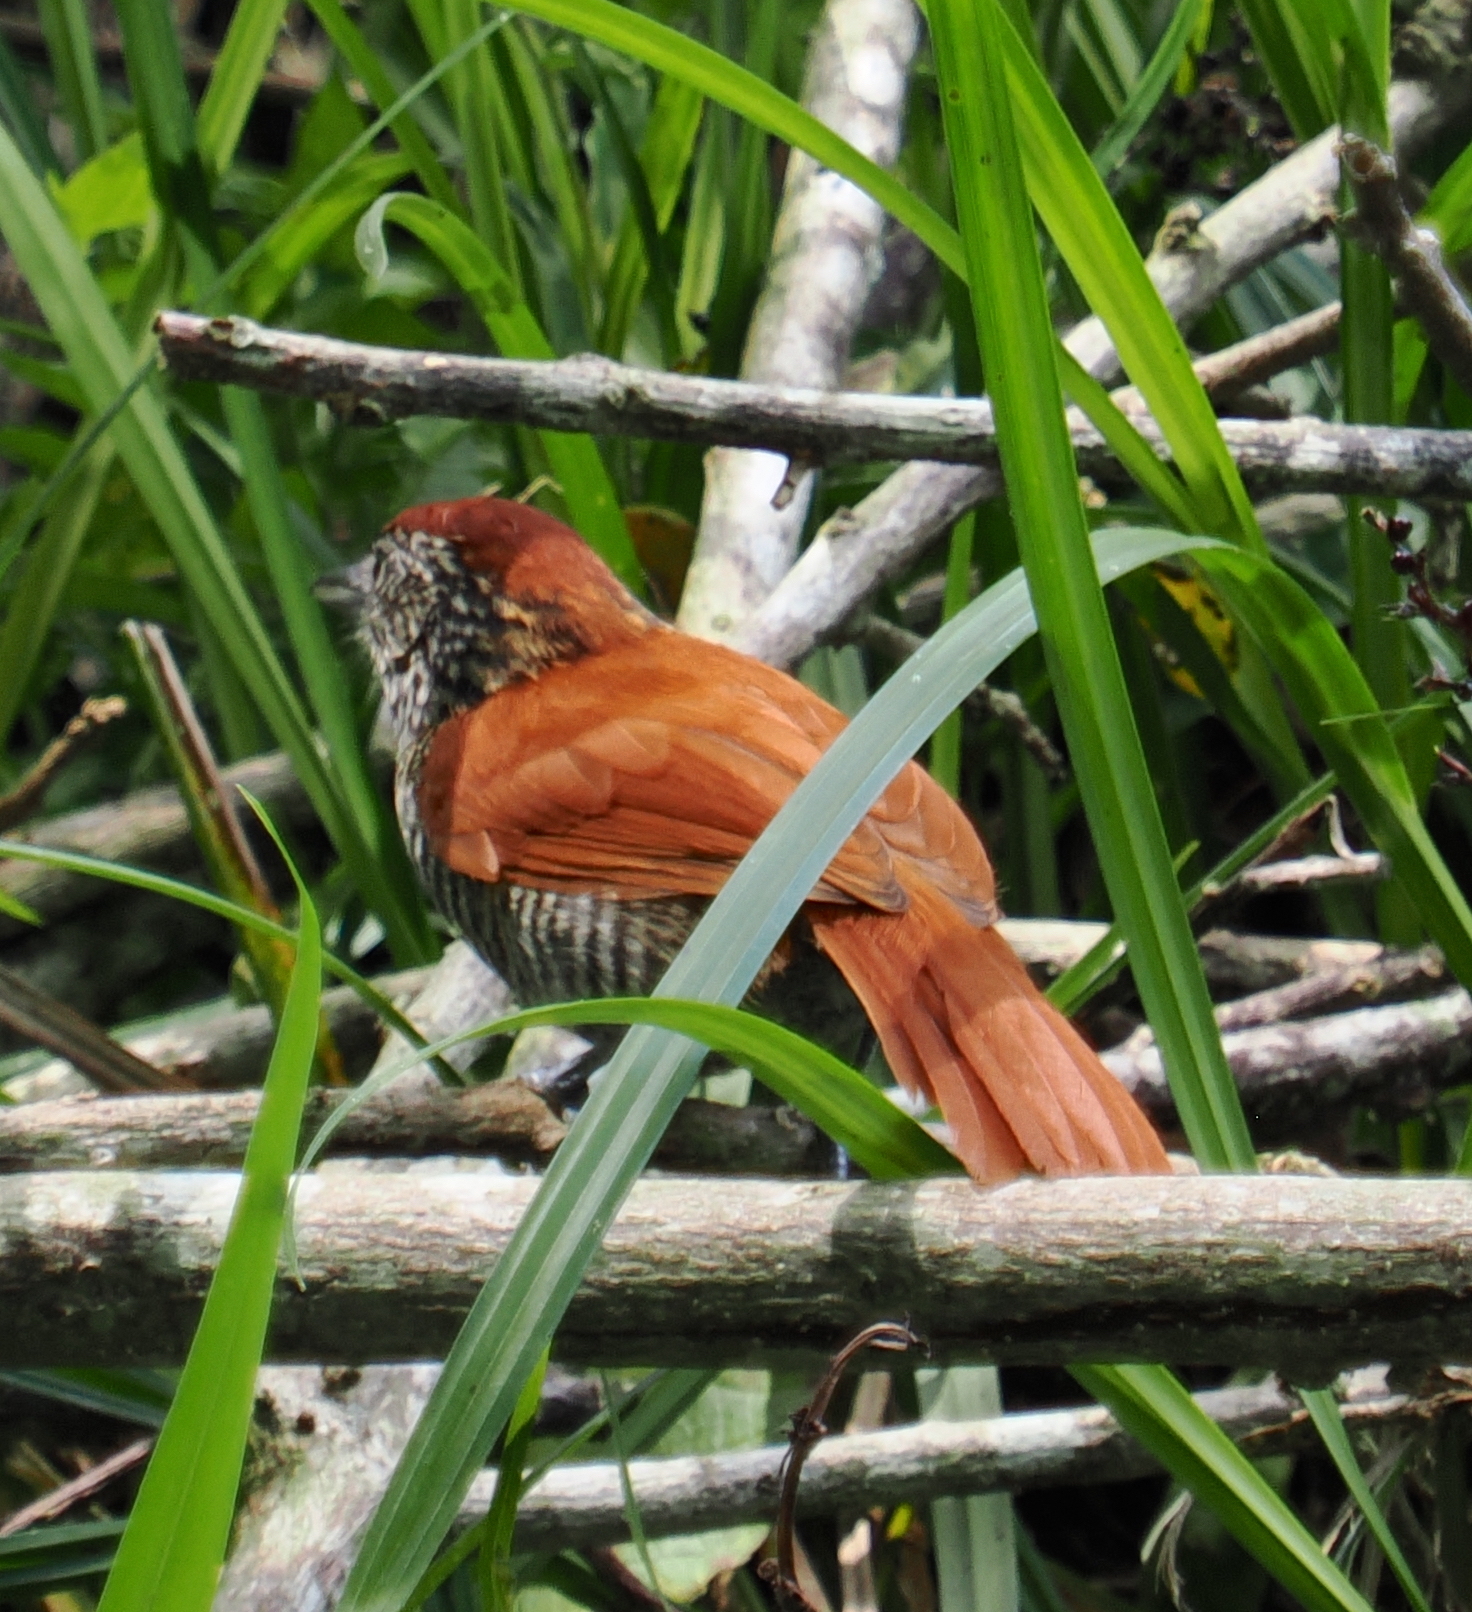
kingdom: Animalia
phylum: Chordata
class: Aves
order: Passeriformes
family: Thamnophilidae
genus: Thamnophilus
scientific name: Thamnophilus multistriatus
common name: Bar-crested antshrike
